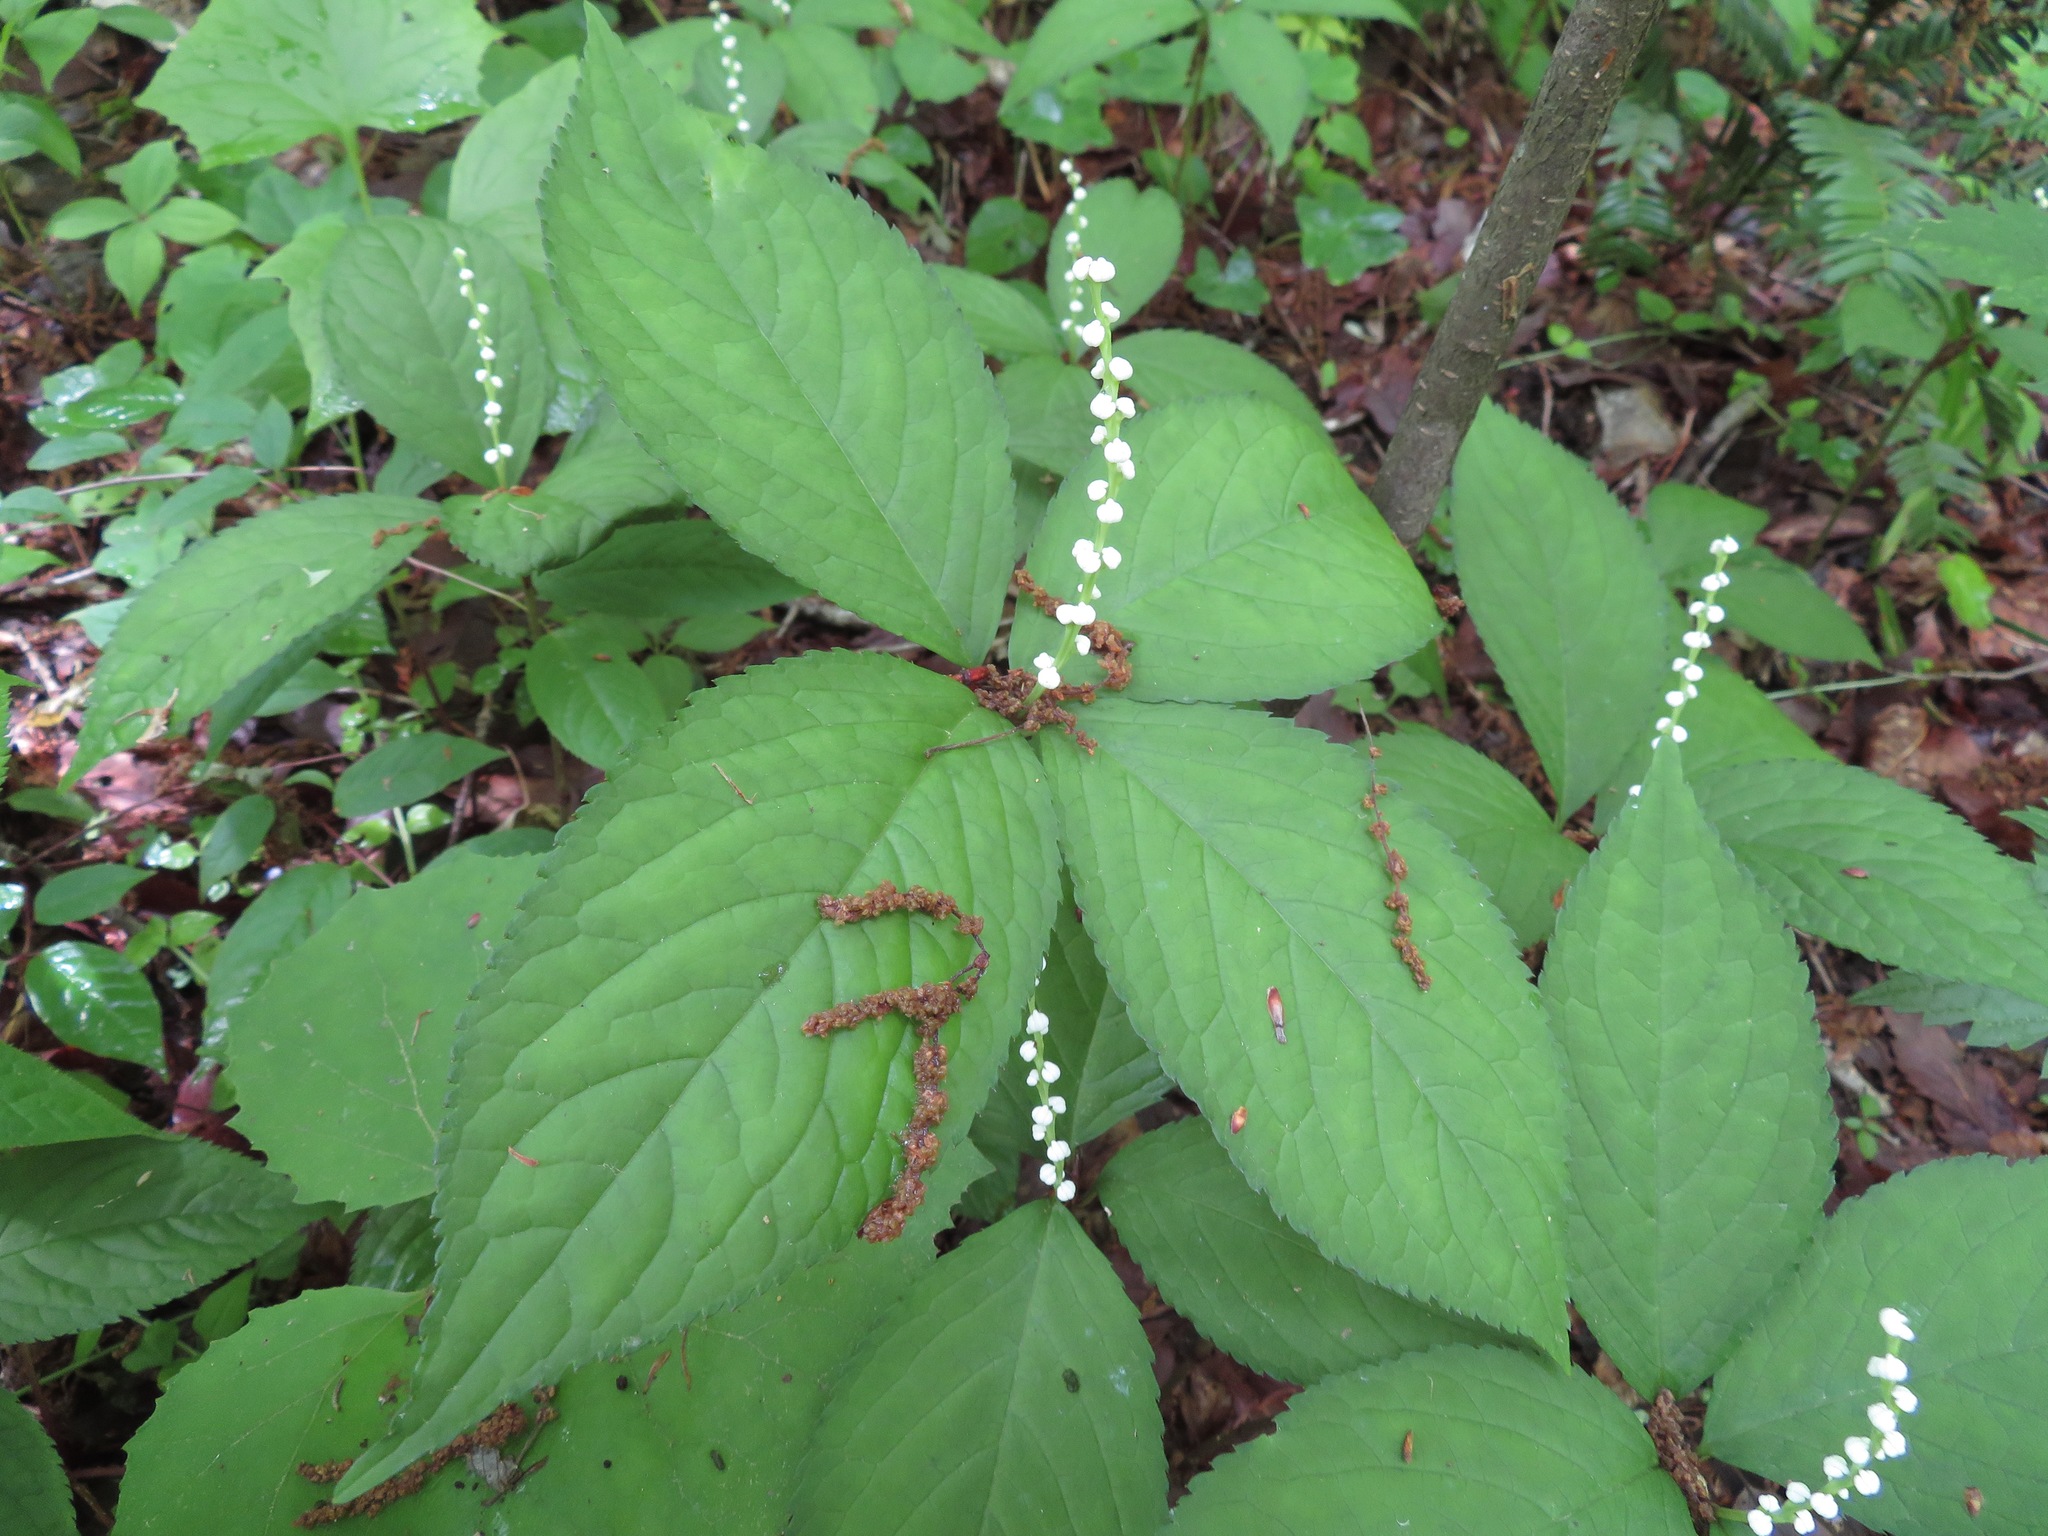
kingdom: Plantae
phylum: Tracheophyta
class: Magnoliopsida
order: Chloranthales
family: Chloranthaceae
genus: Chloranthus
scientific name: Chloranthus serratus
